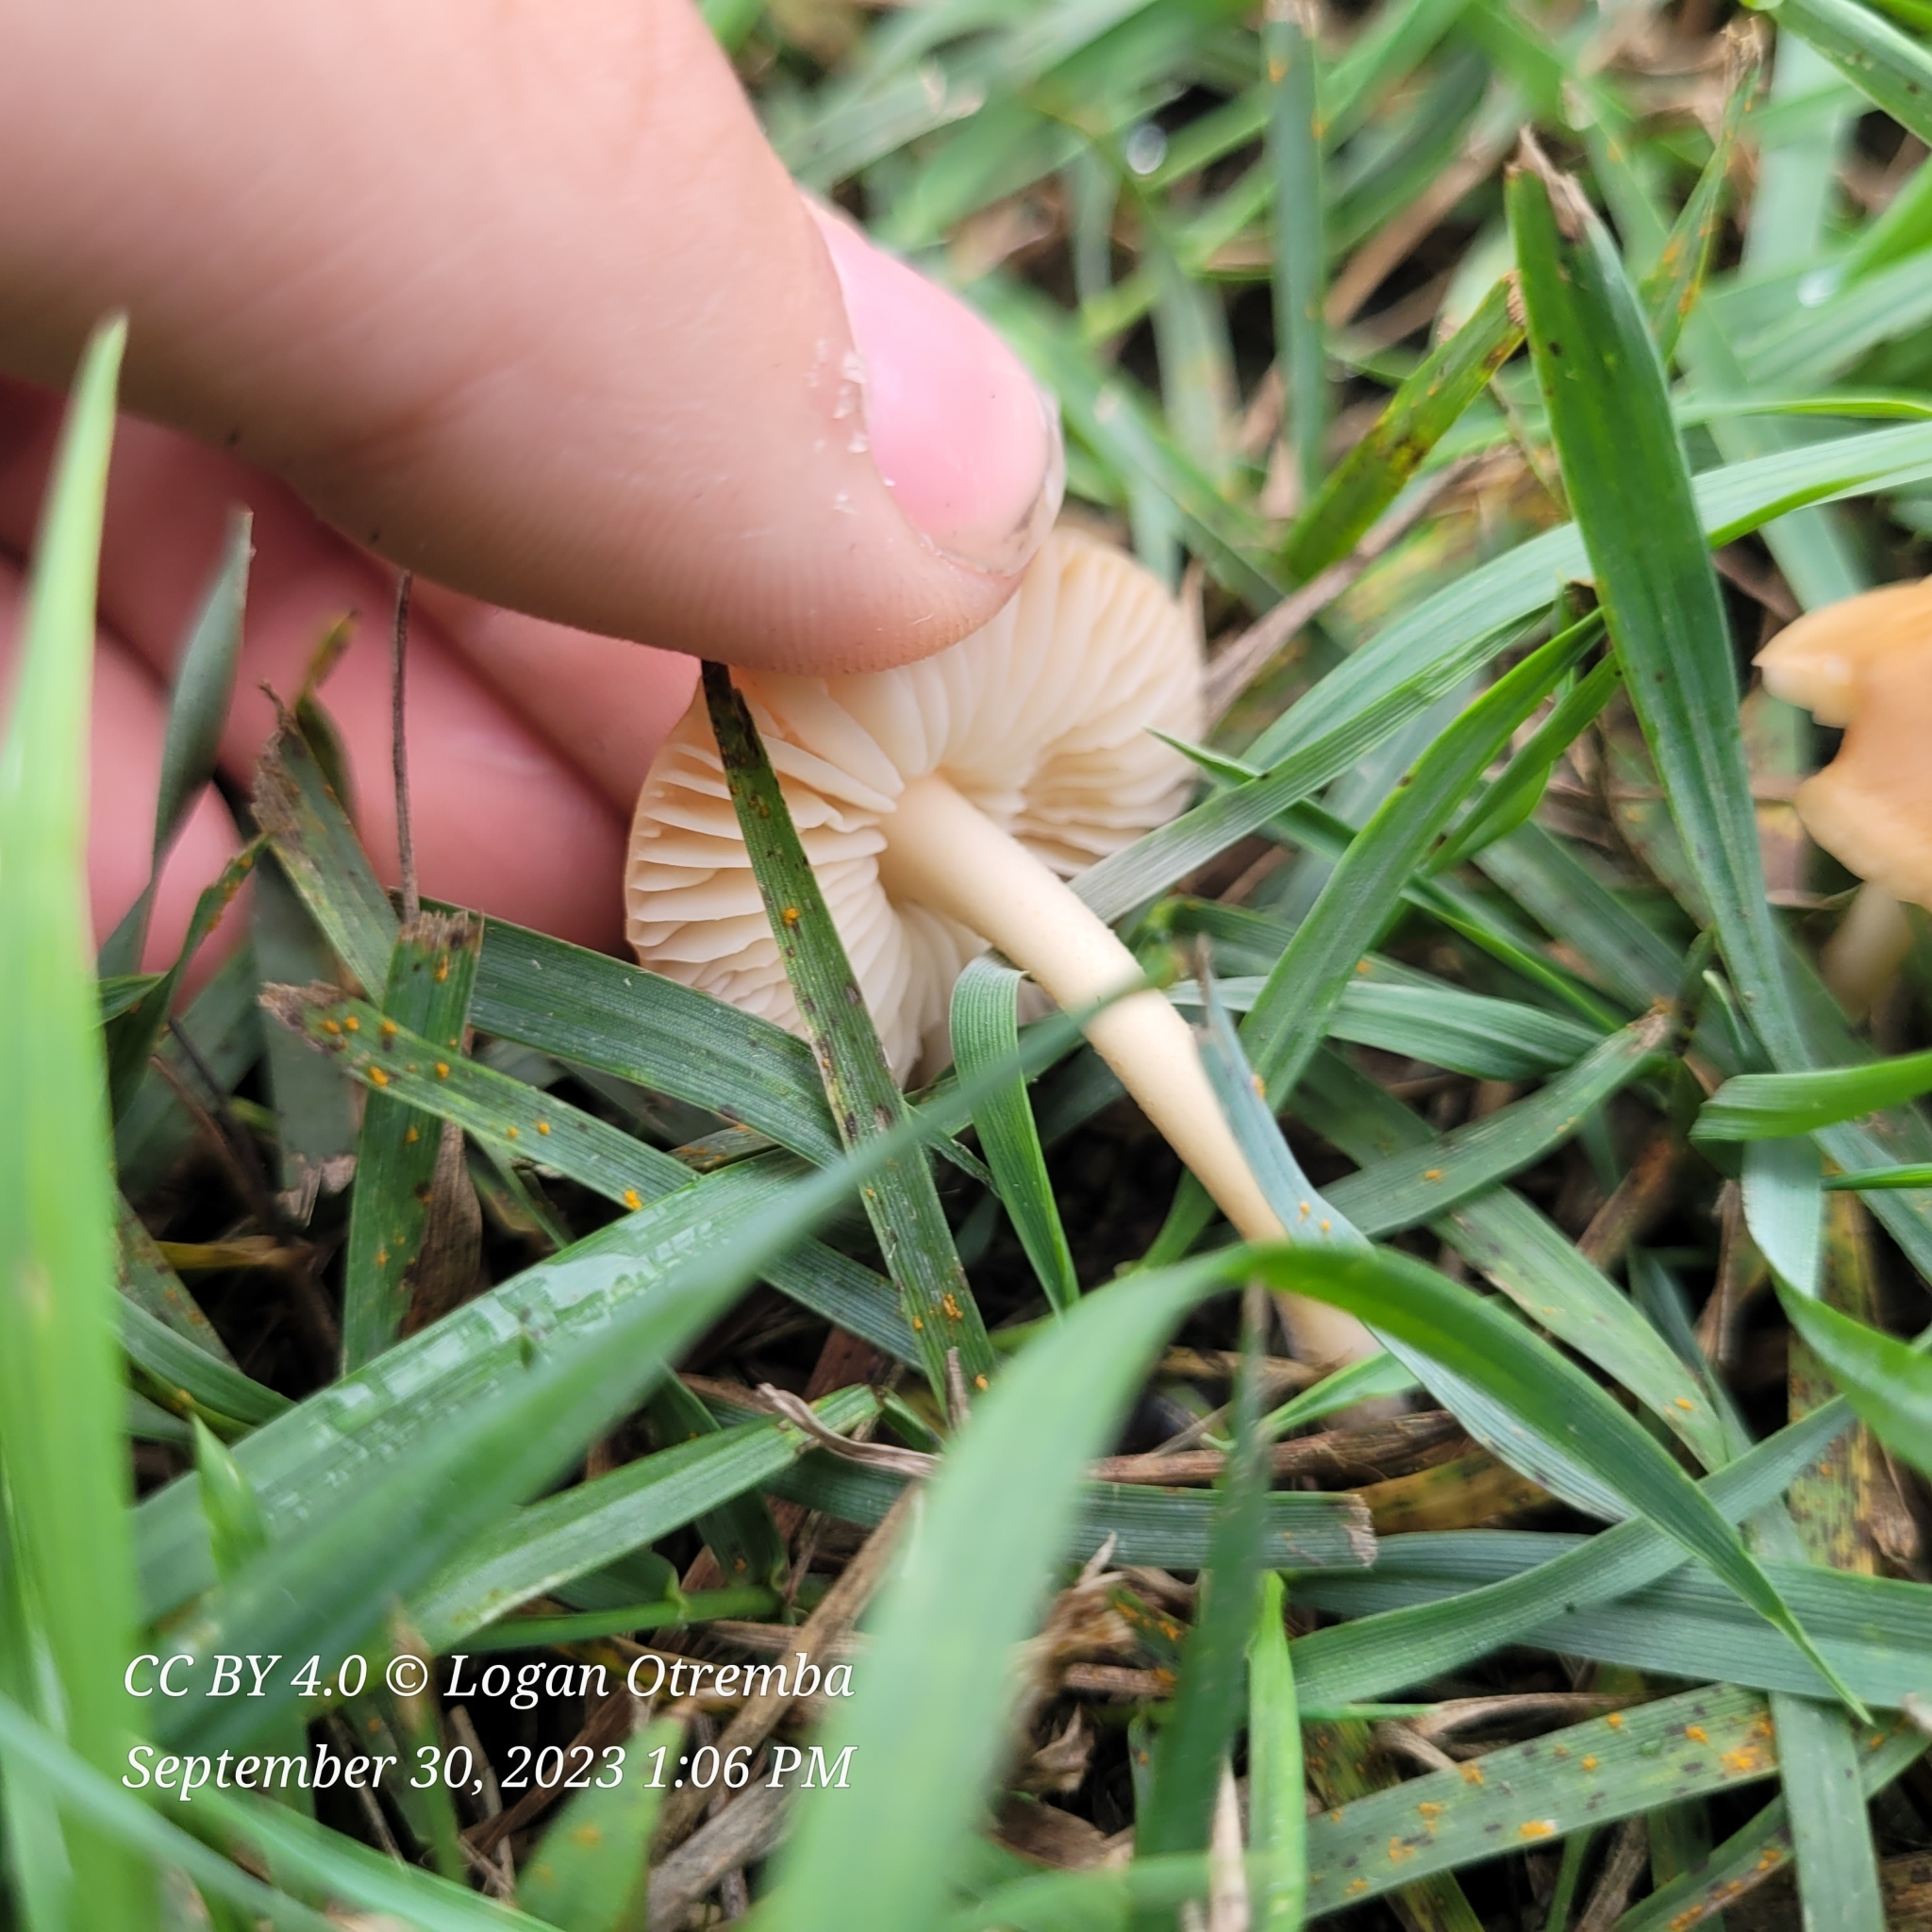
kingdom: Fungi
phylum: Basidiomycota
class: Agaricomycetes
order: Agaricales
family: Marasmiaceae
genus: Marasmius
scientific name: Marasmius oreades
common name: Fairy ring champignon
